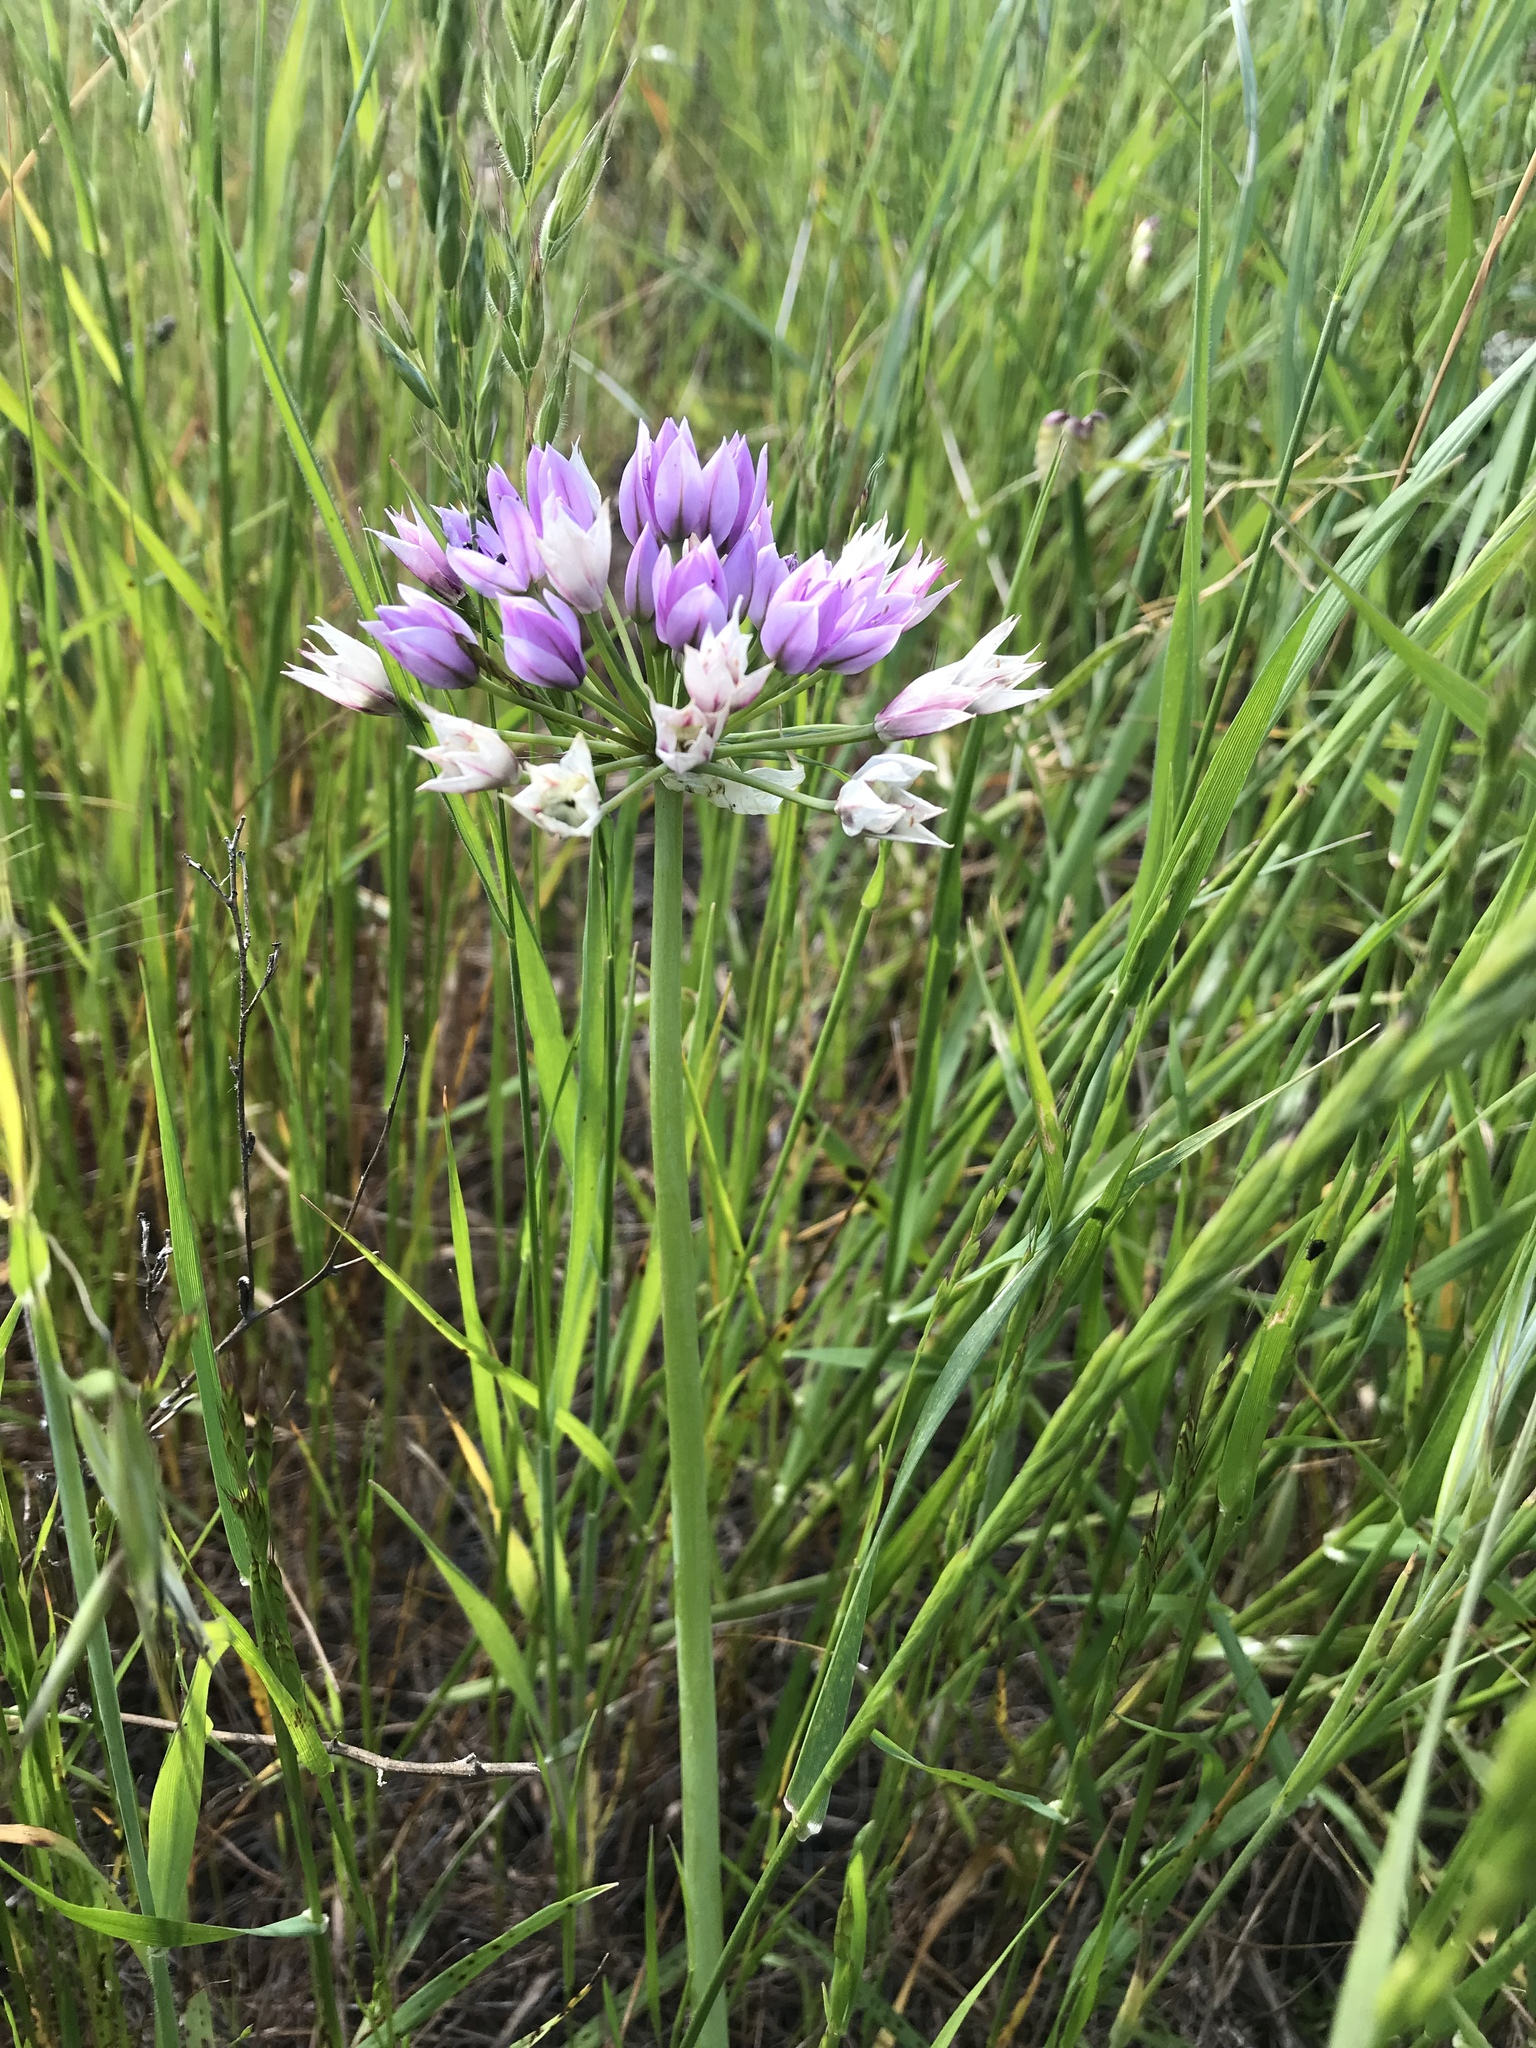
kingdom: Plantae
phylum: Tracheophyta
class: Liliopsida
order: Asparagales
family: Amaryllidaceae
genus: Allium
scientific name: Allium unifolium
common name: American garlic
